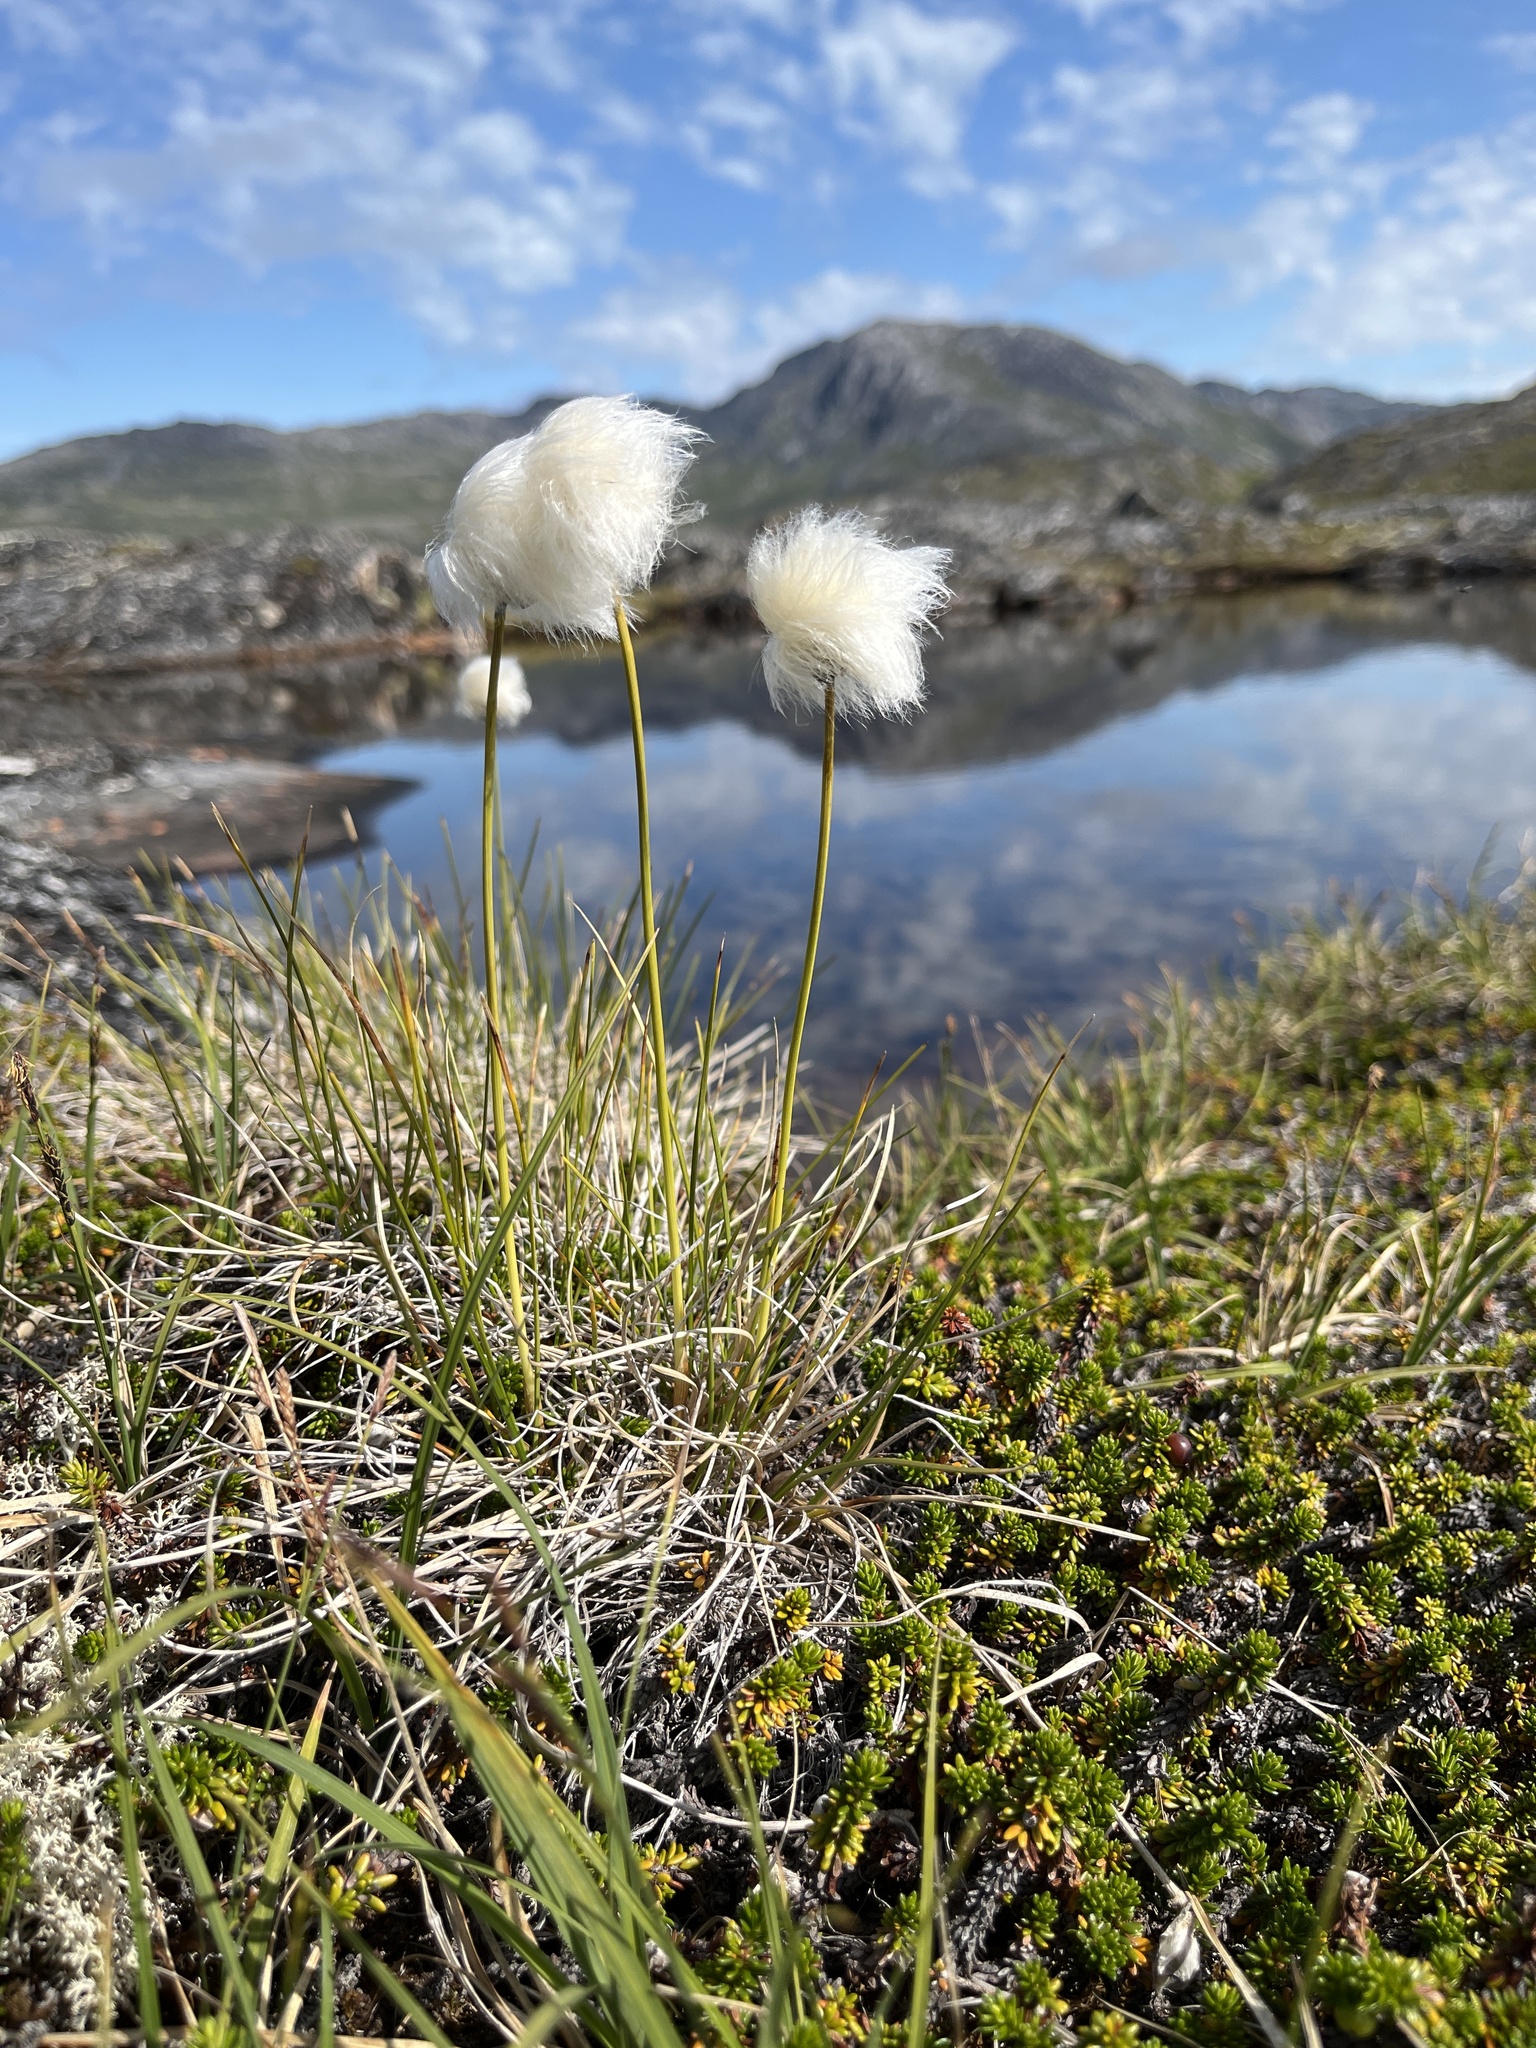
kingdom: Plantae
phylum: Tracheophyta
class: Liliopsida
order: Poales
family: Cyperaceae
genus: Eriophorum
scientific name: Eriophorum vaginatum
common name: Hare's-tail cottongrass
